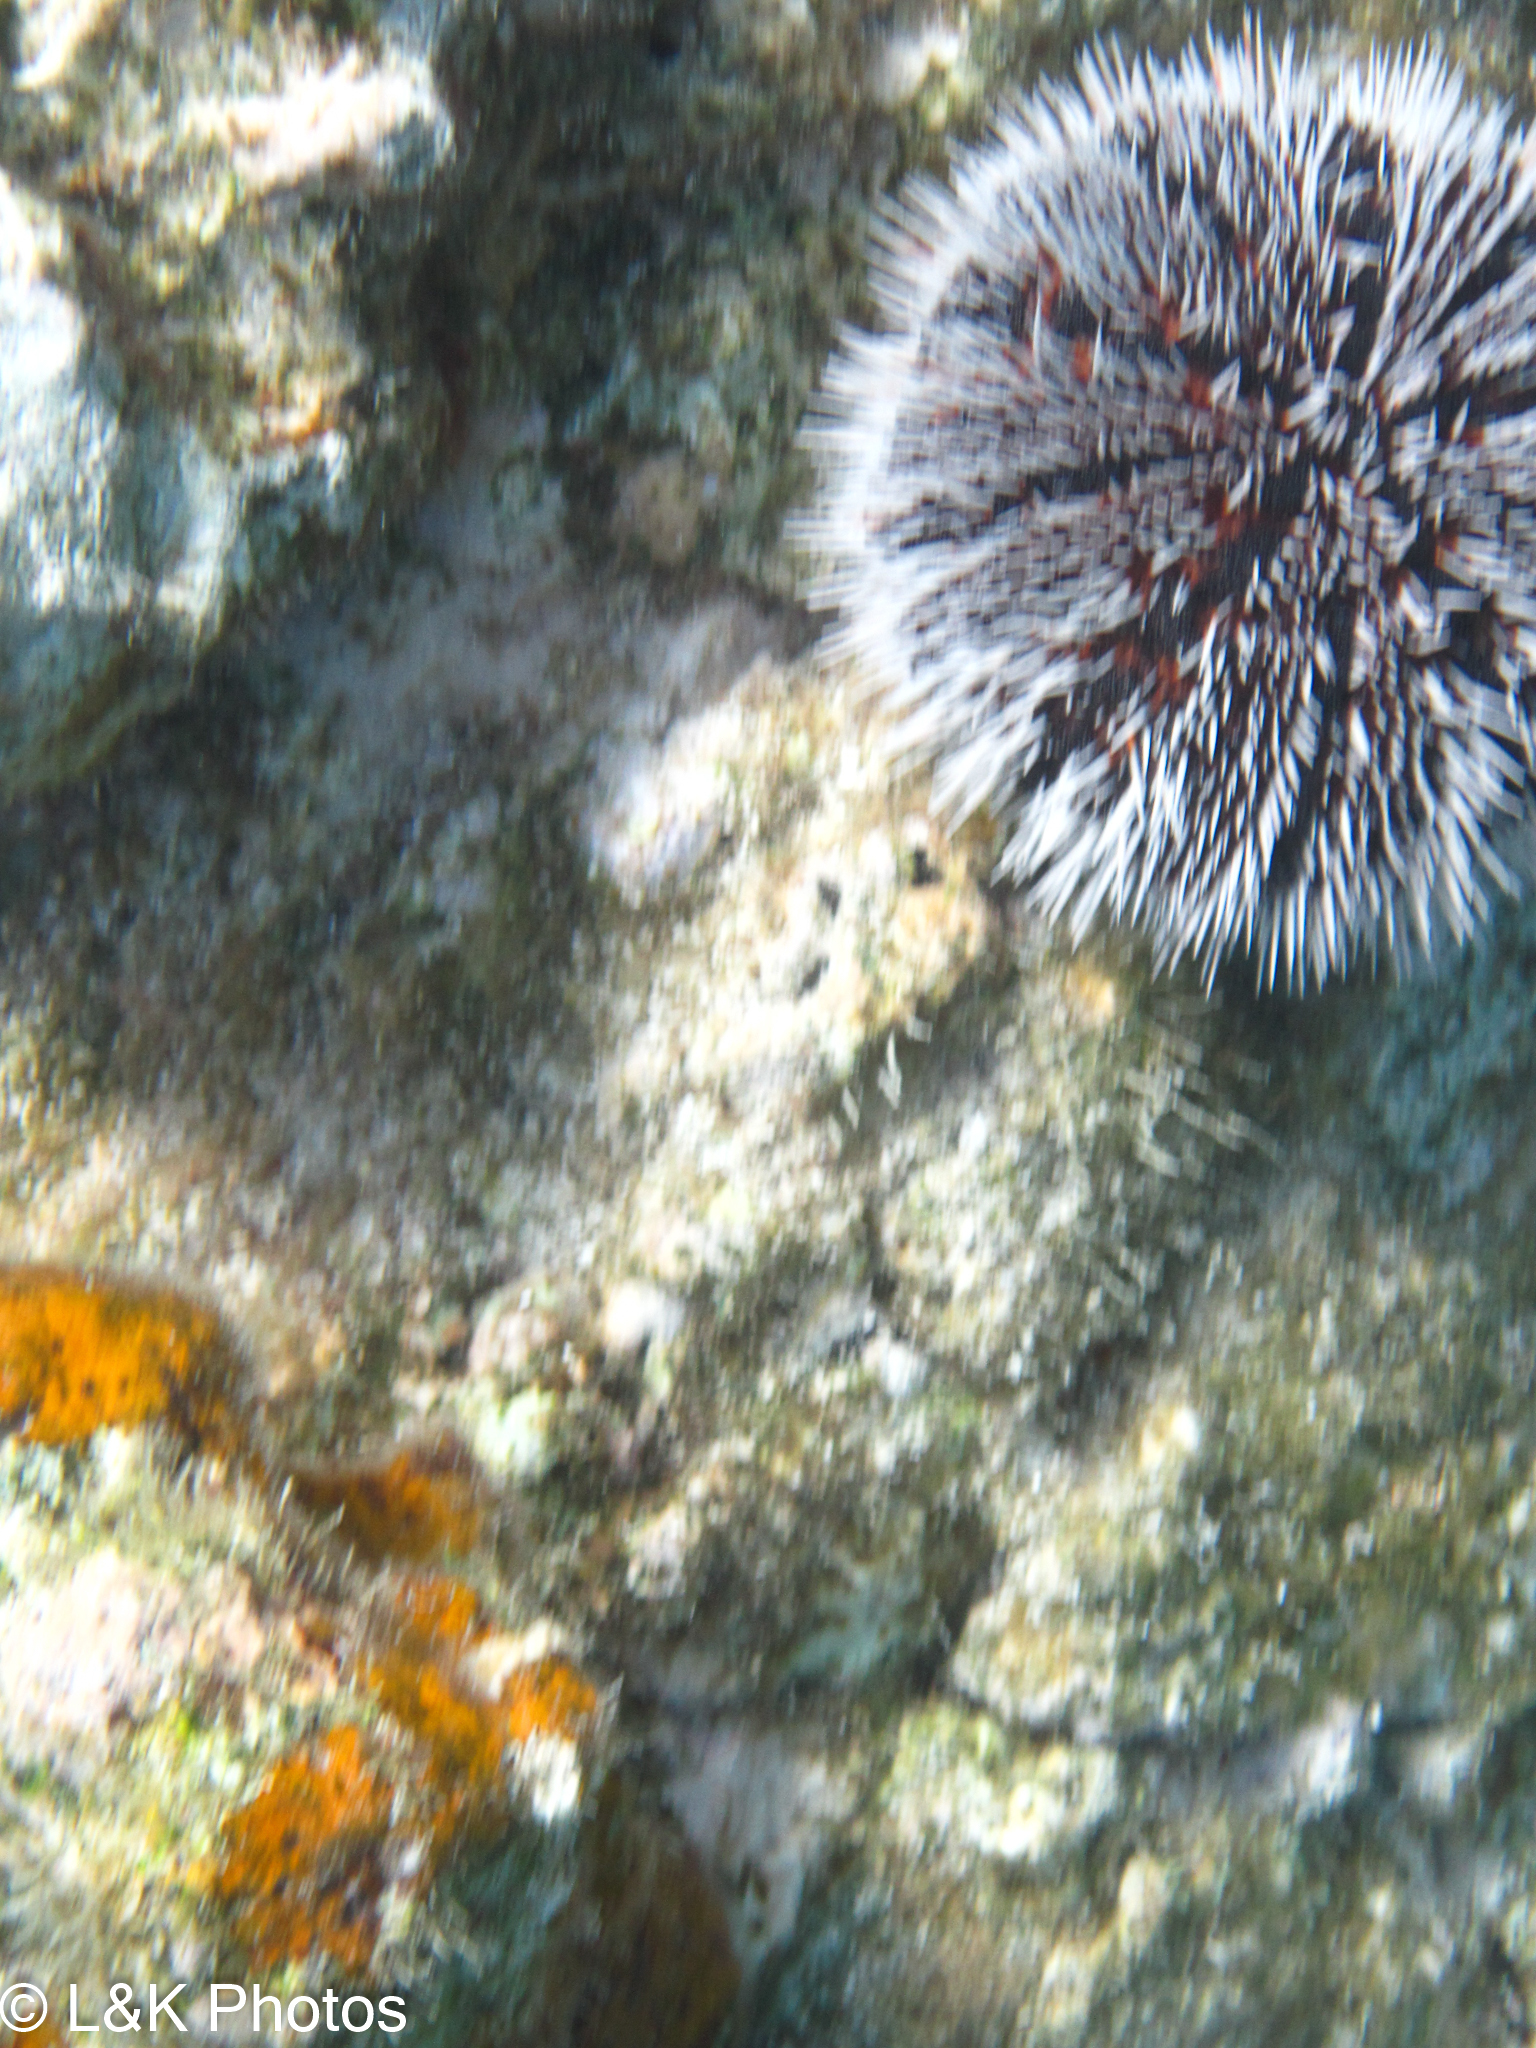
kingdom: Animalia
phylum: Echinodermata
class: Echinoidea
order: Camarodonta
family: Toxopneustidae
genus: Tripneustes
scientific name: Tripneustes ventricosus
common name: West indian sea egg
